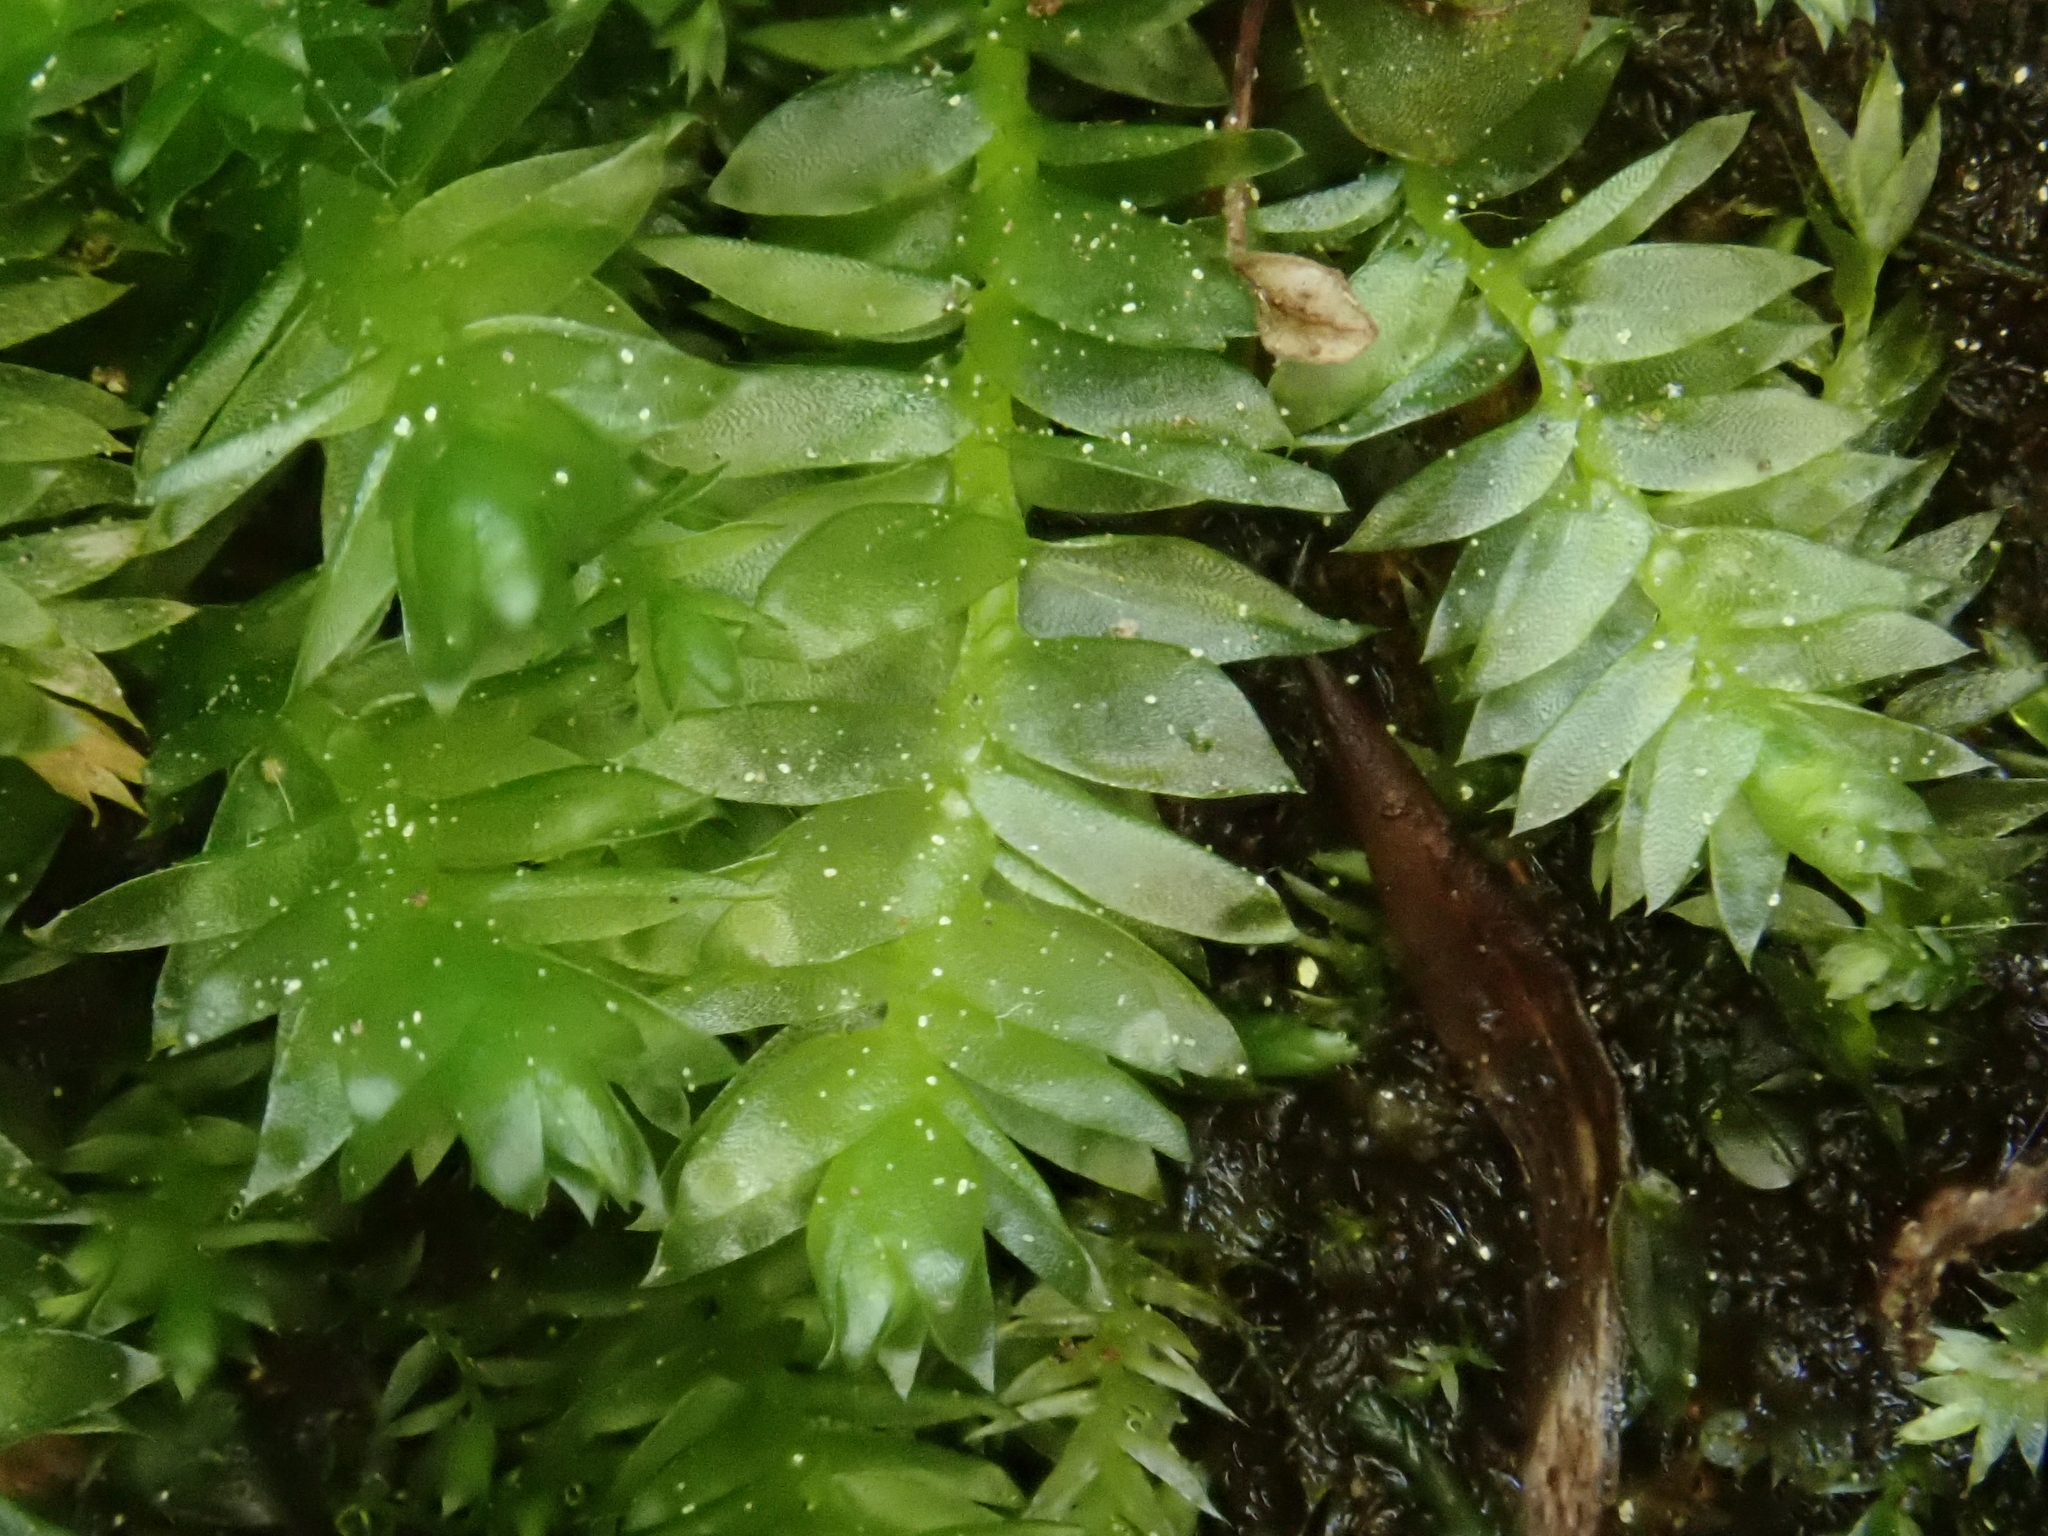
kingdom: Plantae
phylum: Bryophyta
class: Bryopsida
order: Hypnales
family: Plagiotheciaceae
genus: Plagiothecium
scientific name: Plagiothecium nemorale
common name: Woodsy silk-moss
